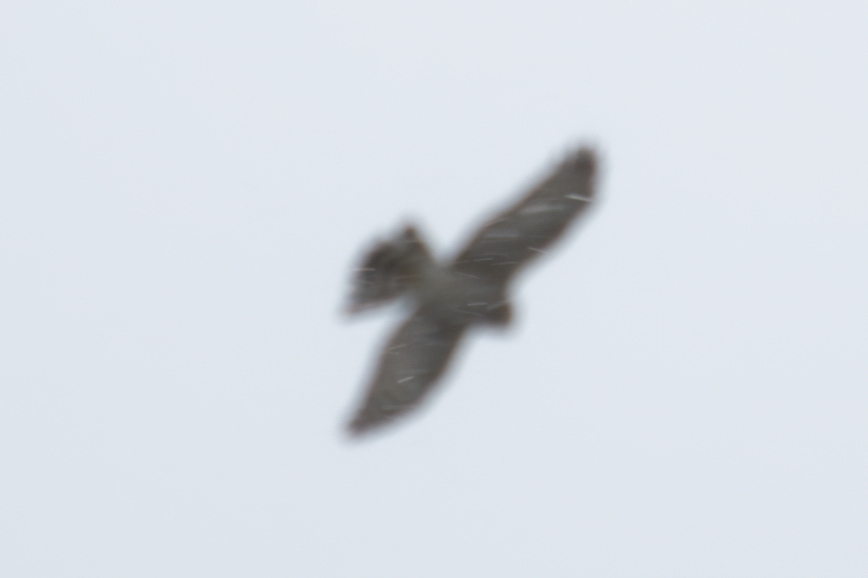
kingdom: Animalia
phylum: Chordata
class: Aves
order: Accipitriformes
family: Accipitridae
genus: Accipiter
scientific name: Accipiter nisus
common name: Eurasian sparrowhawk
